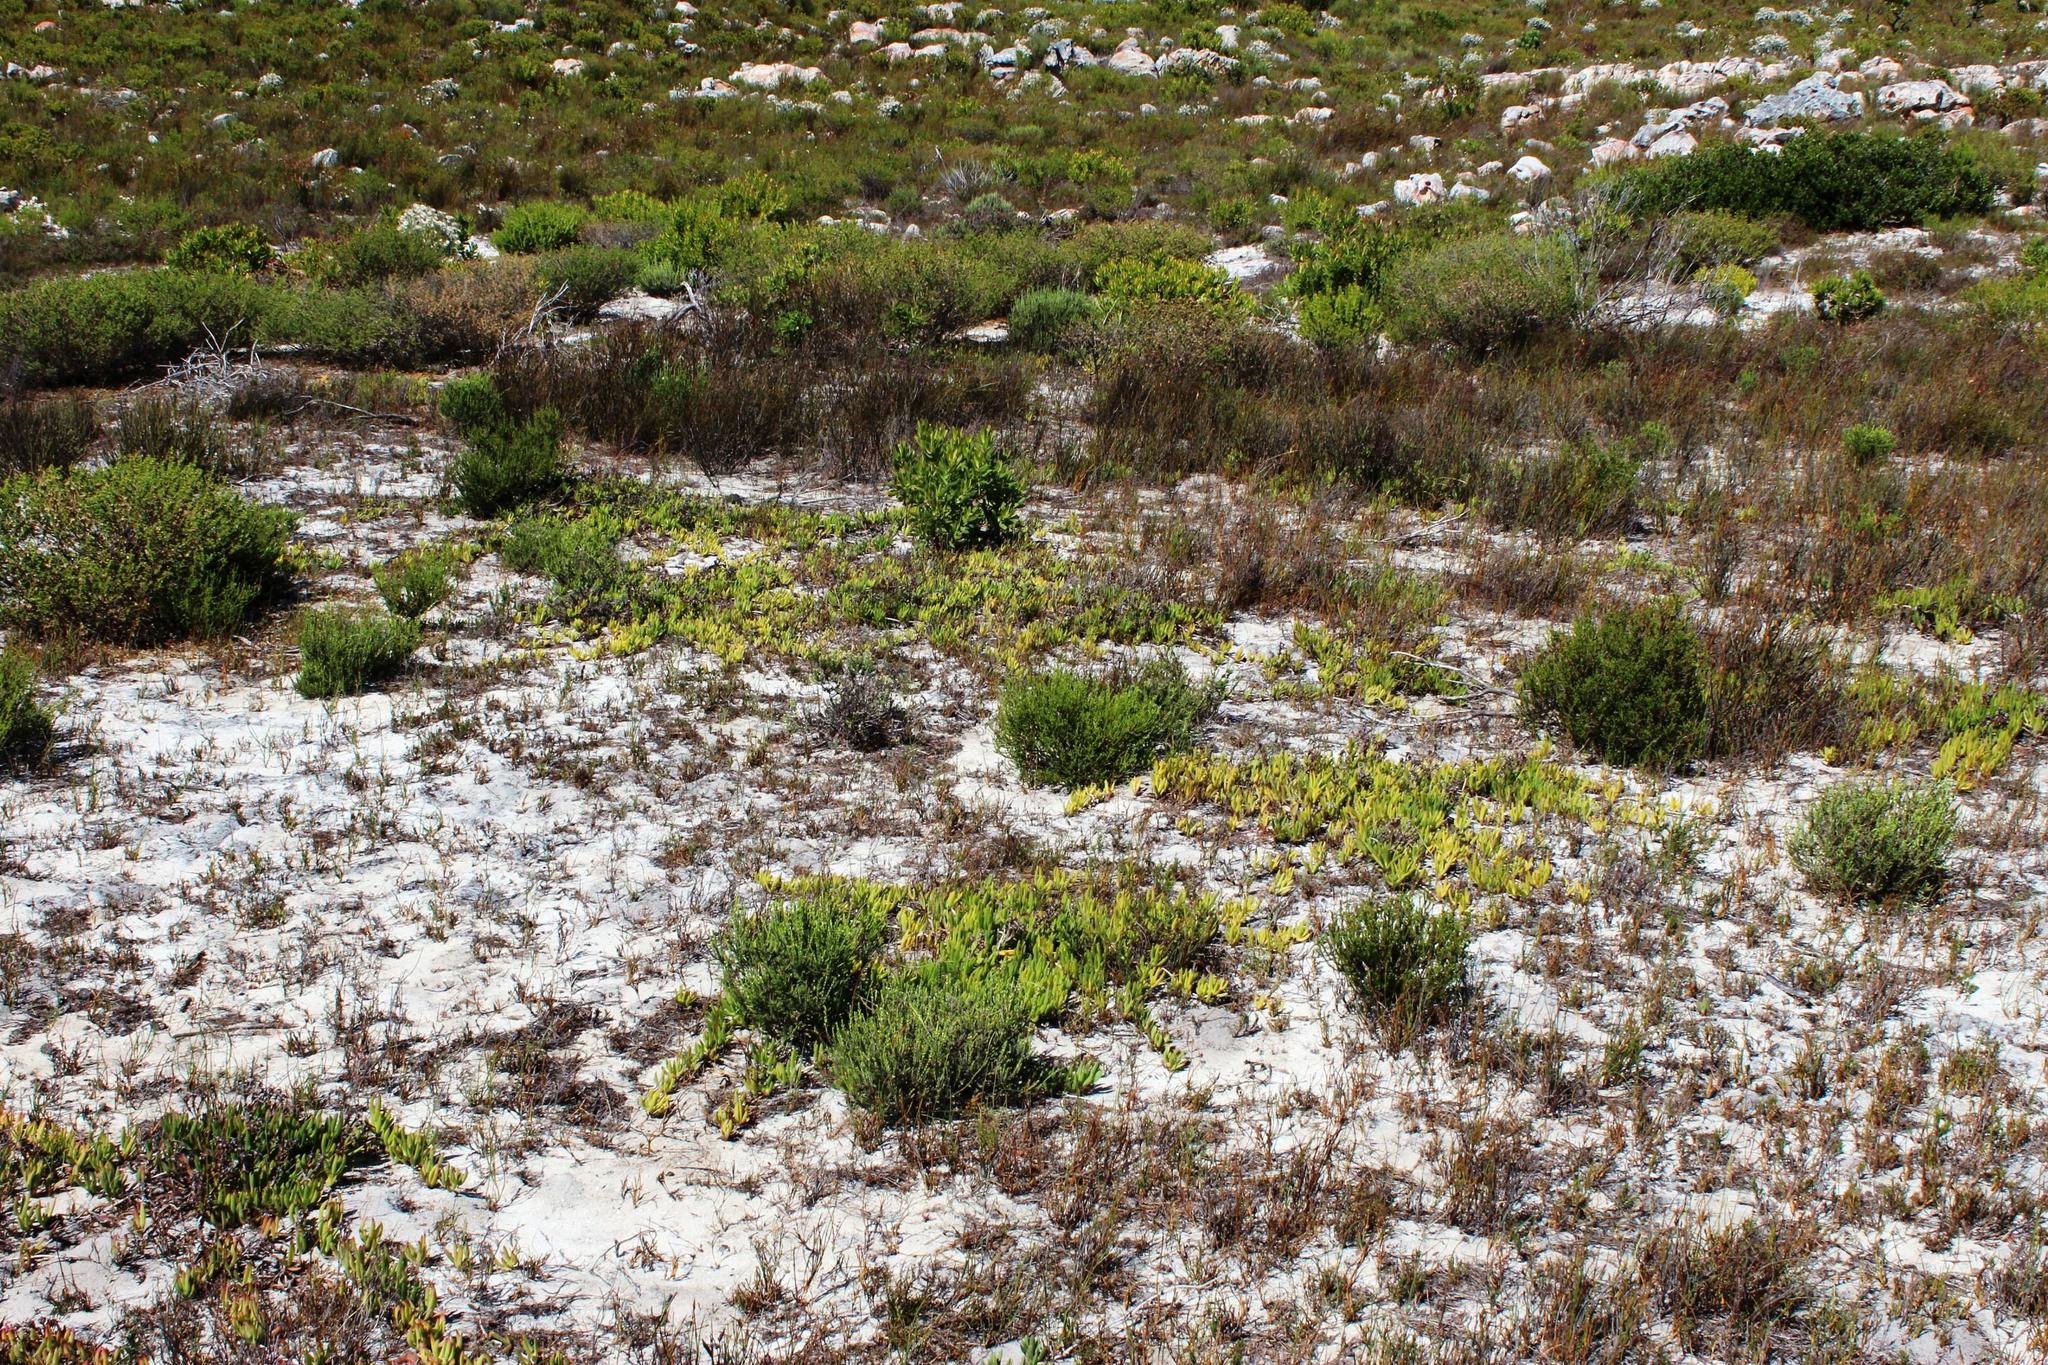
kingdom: Plantae
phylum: Tracheophyta
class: Magnoliopsida
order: Caryophyllales
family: Aizoaceae
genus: Ruschia
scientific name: Ruschia sarmentosa
